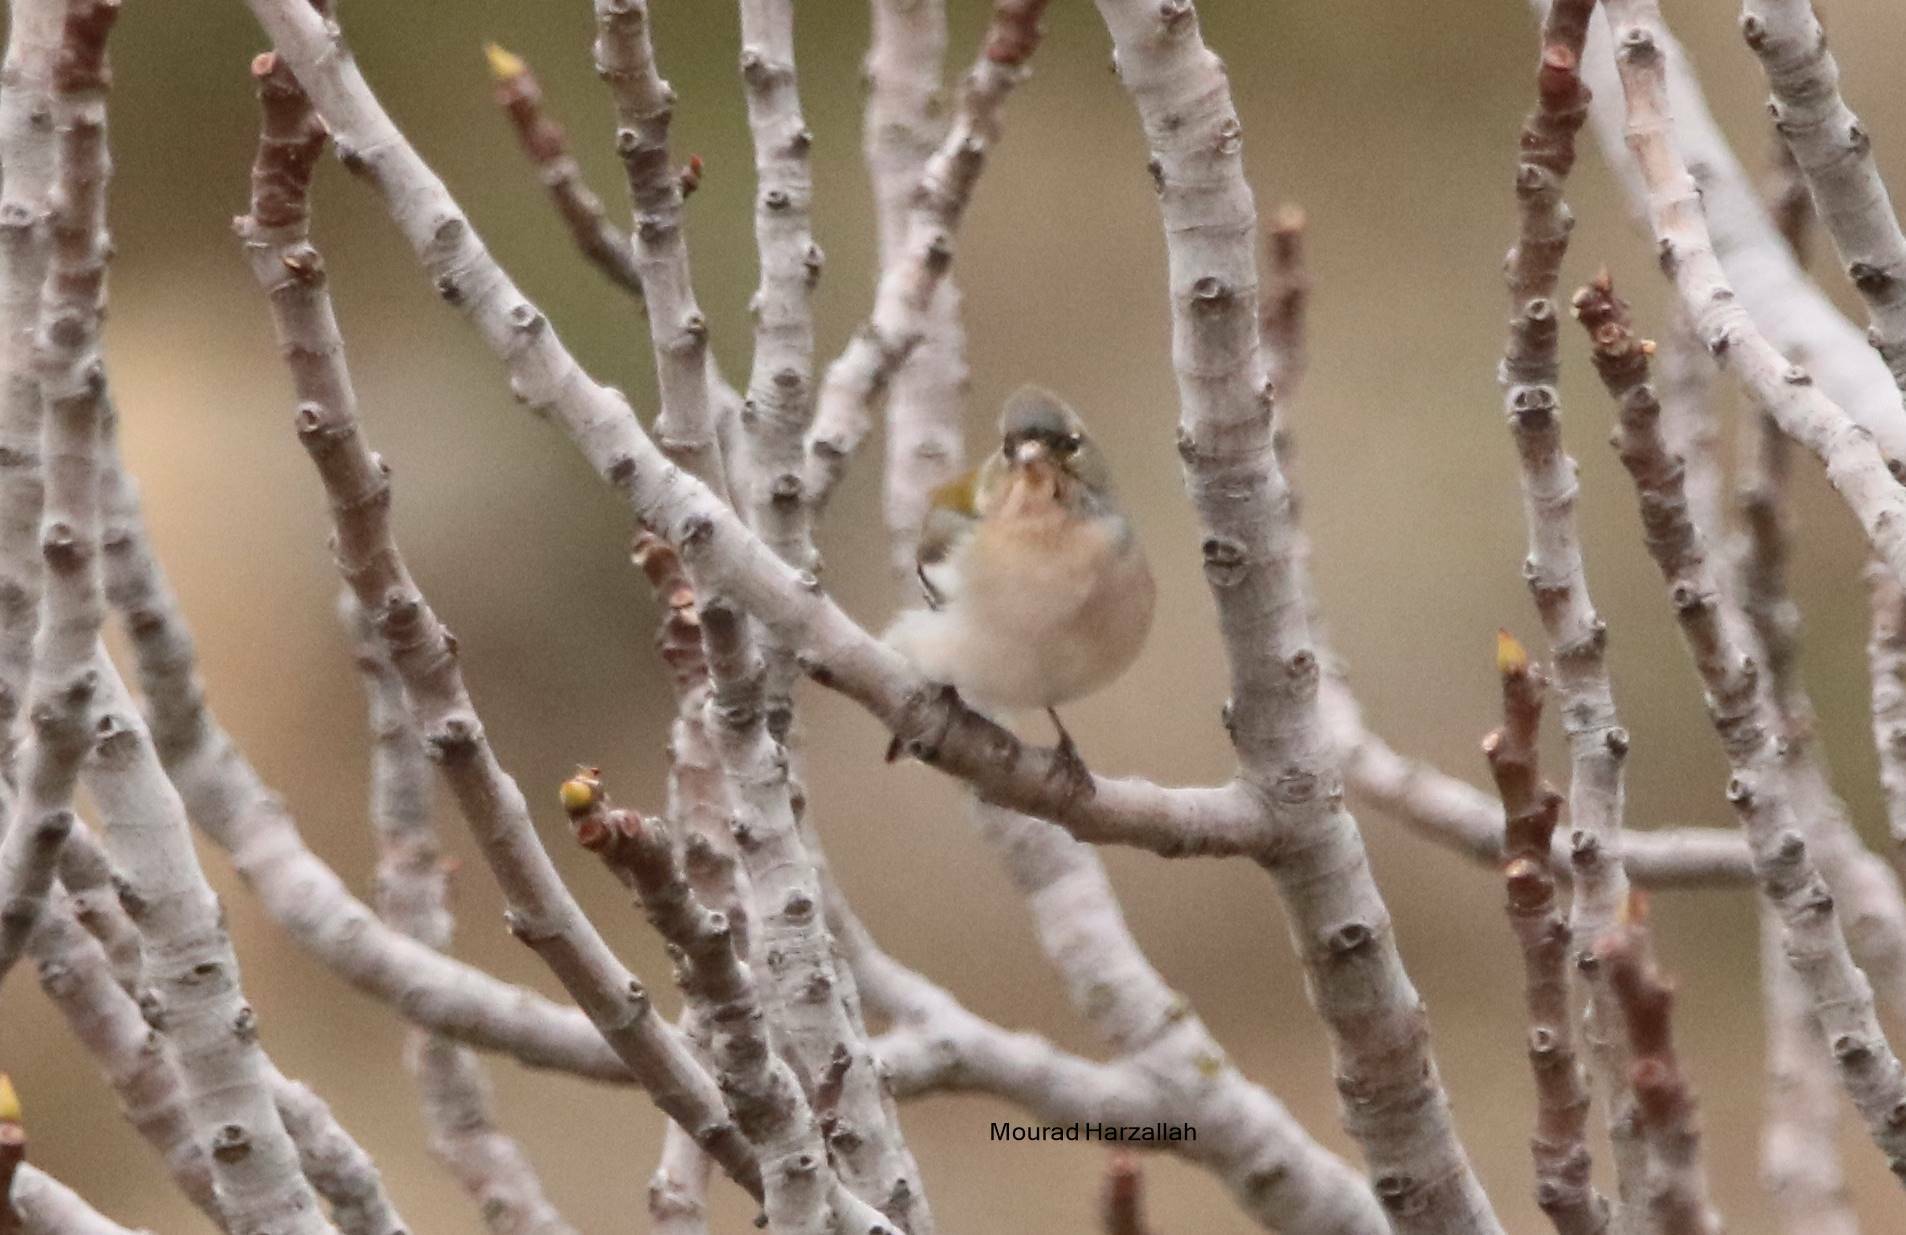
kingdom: Animalia
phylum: Chordata
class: Aves
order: Passeriformes
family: Fringillidae
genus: Fringilla
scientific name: Fringilla spodiogenys
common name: African chaffinch
